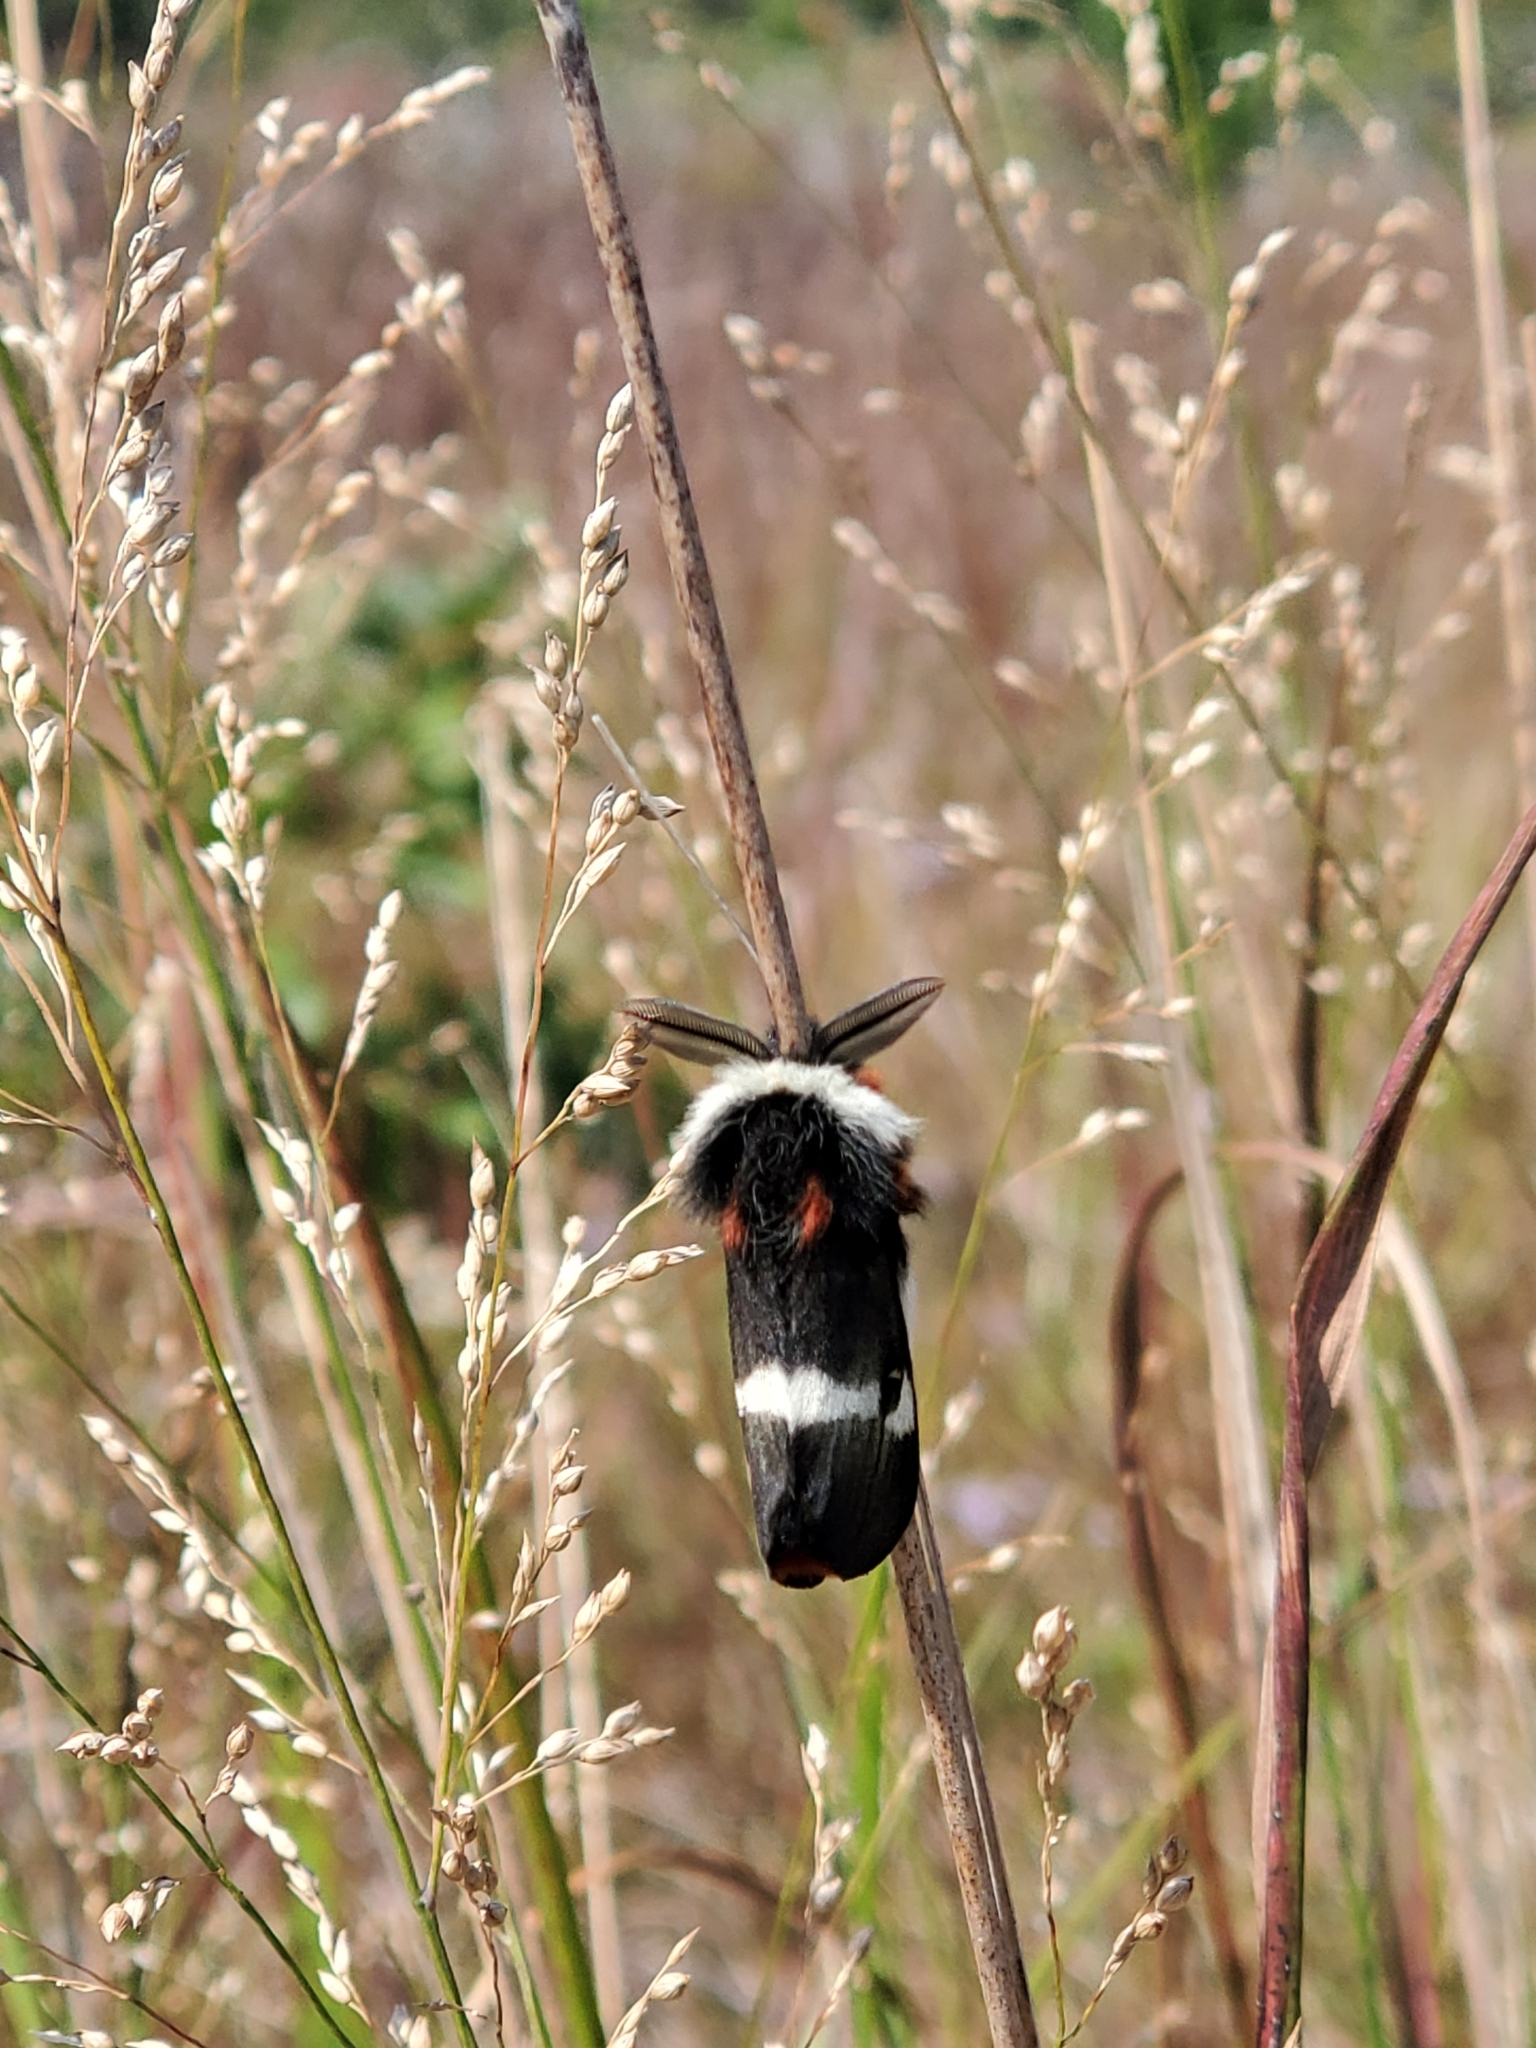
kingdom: Animalia
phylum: Arthropoda
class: Insecta
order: Lepidoptera
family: Saturniidae
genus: Hemileuca
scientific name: Hemileuca maia
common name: Eastern buckmoth
